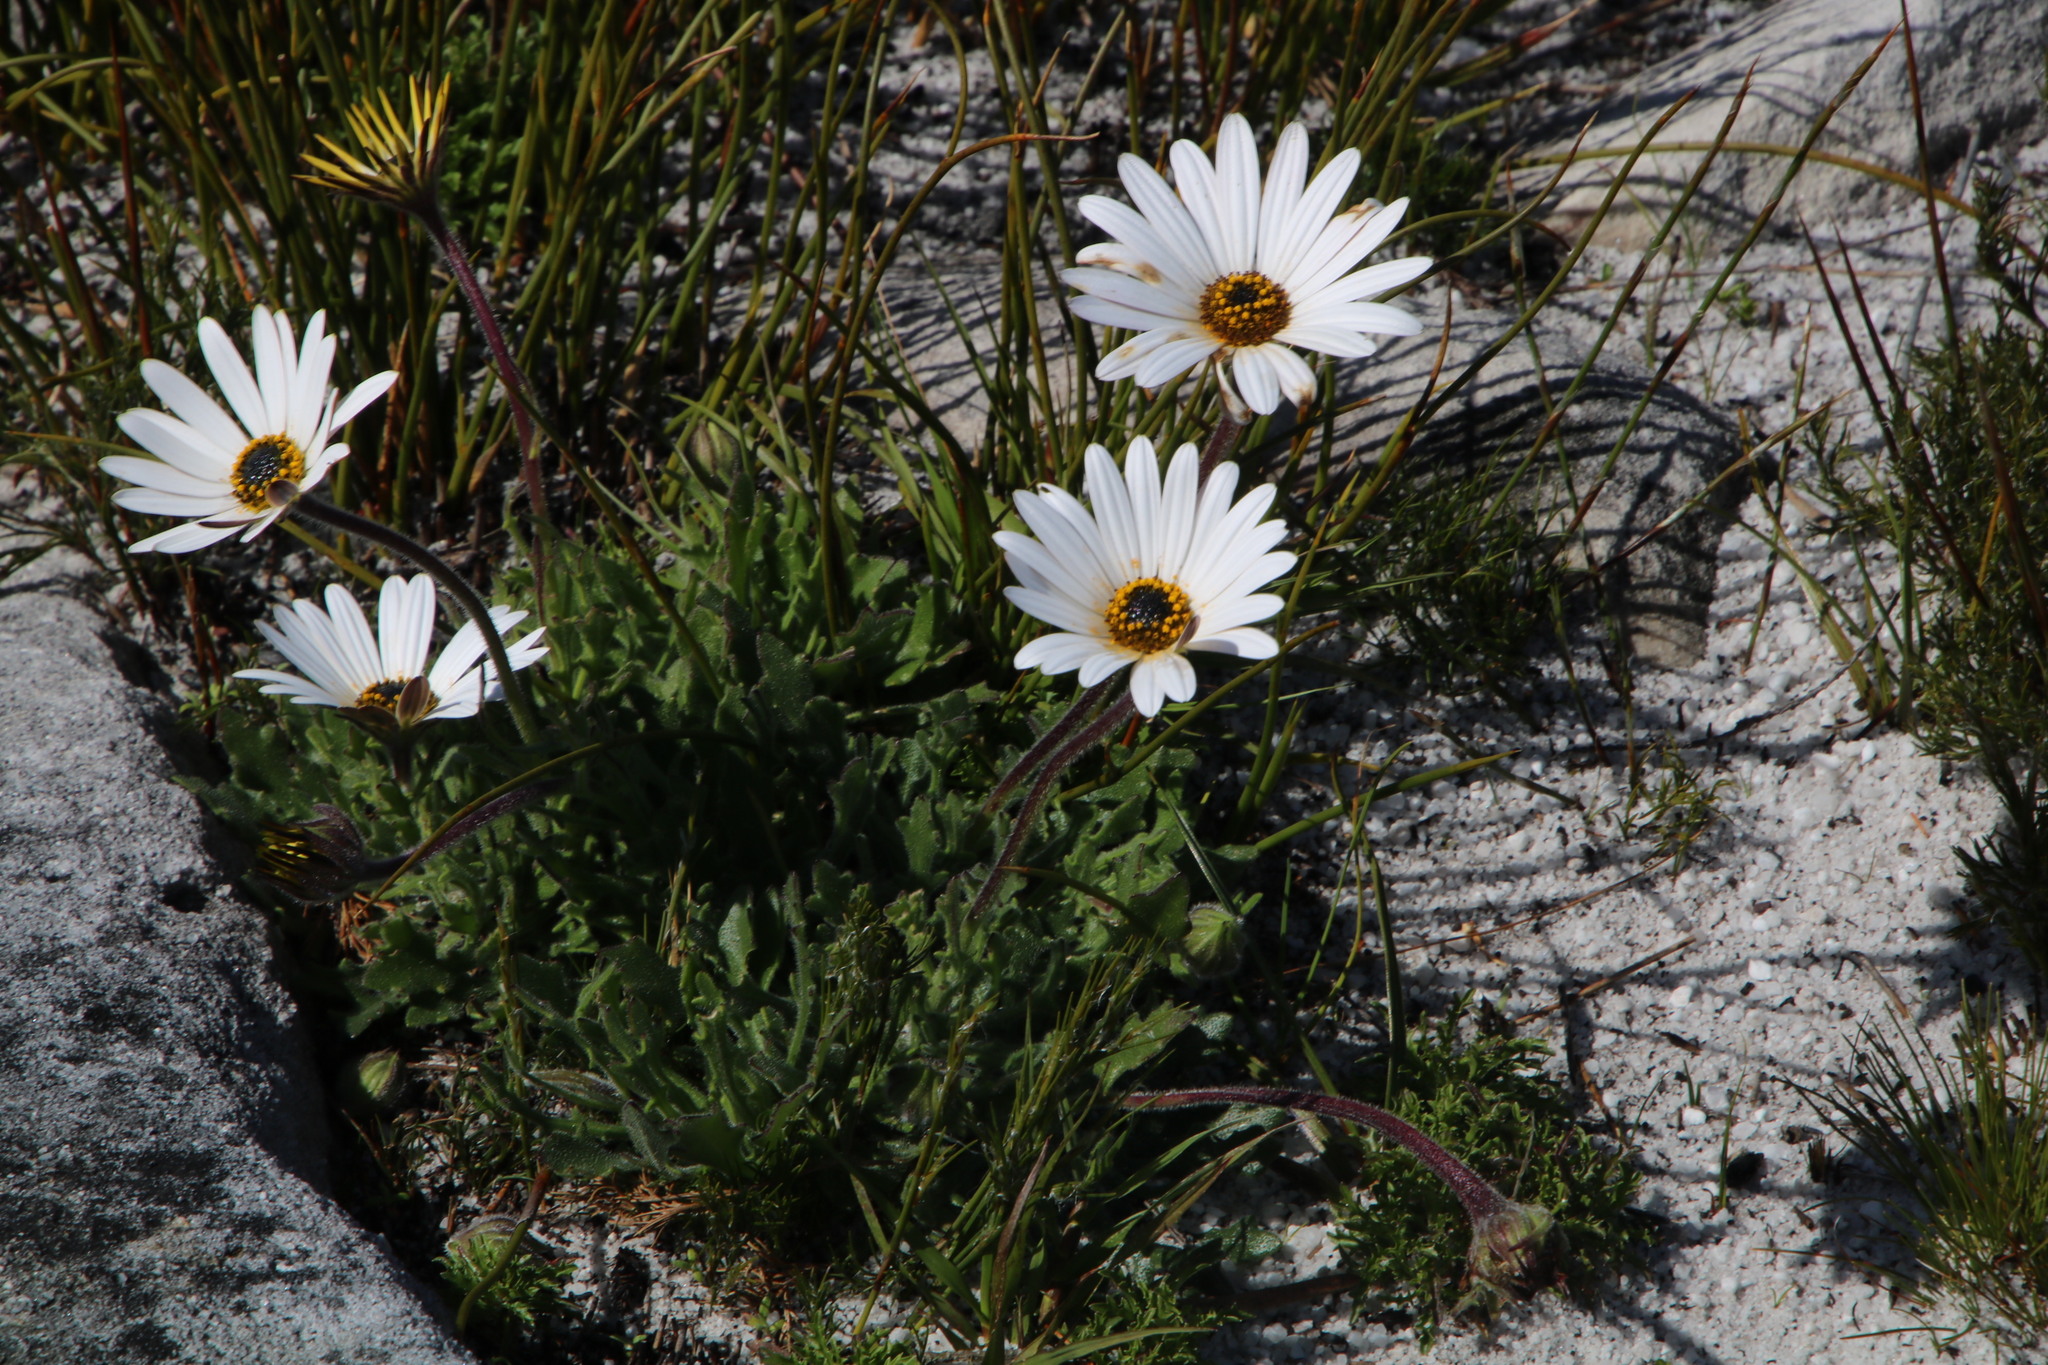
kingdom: Plantae
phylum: Tracheophyta
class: Magnoliopsida
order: Asterales
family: Asteraceae
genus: Dimorphotheca
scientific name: Dimorphotheca nudicaulis
